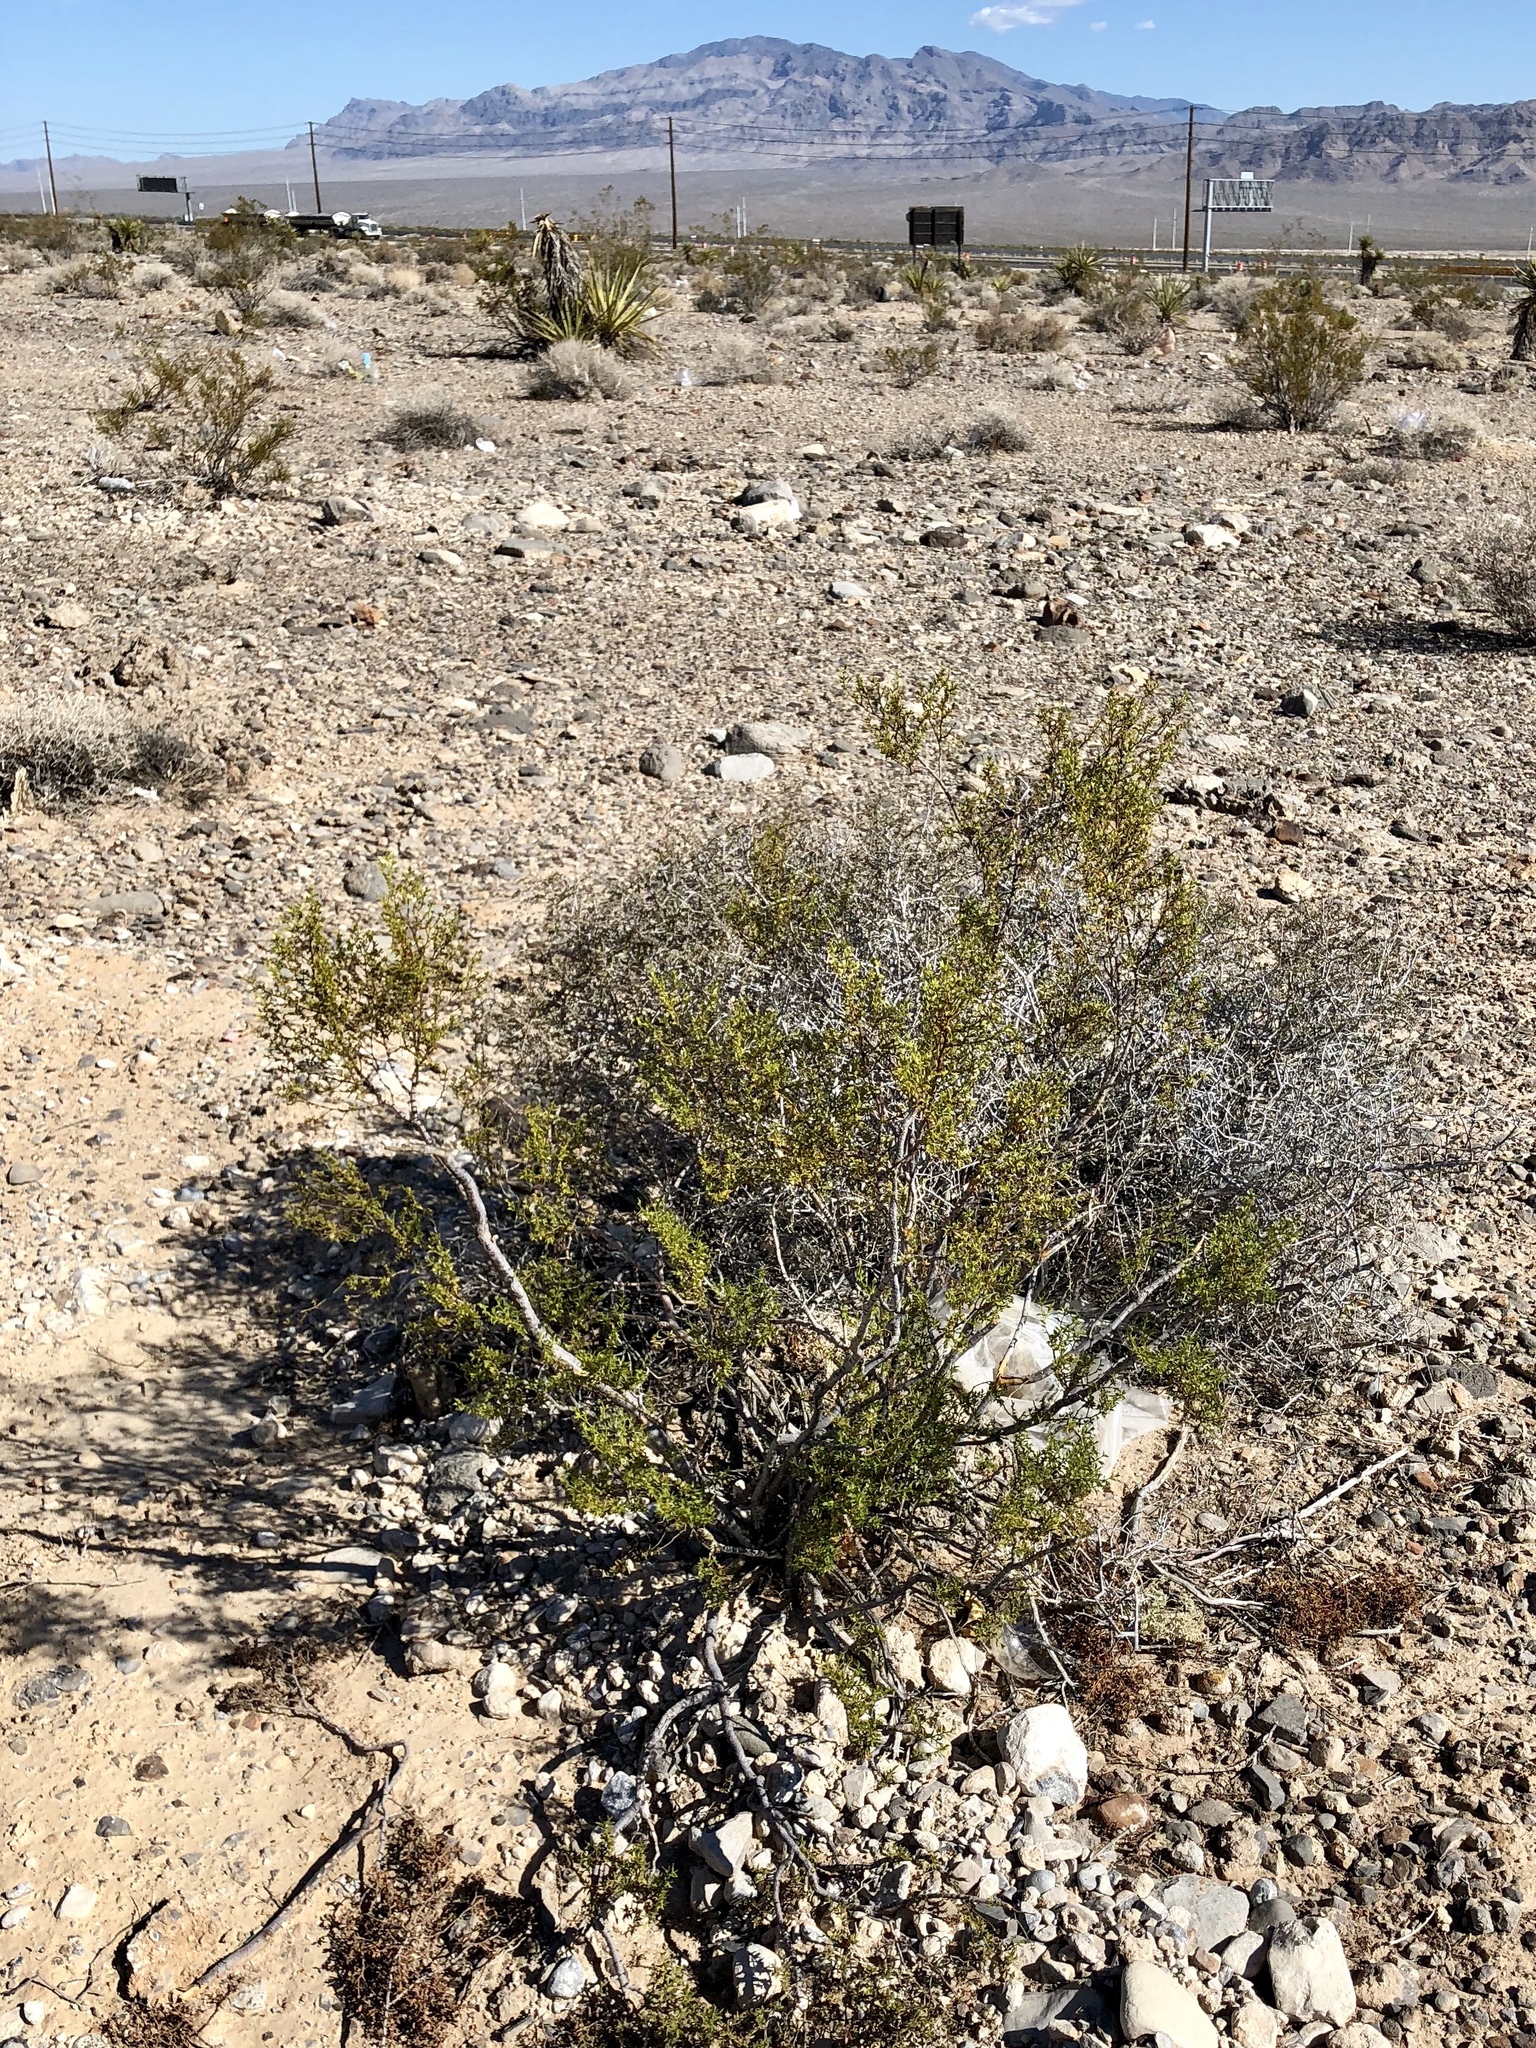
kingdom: Plantae
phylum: Tracheophyta
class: Magnoliopsida
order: Zygophyllales
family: Zygophyllaceae
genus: Larrea
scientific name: Larrea tridentata
